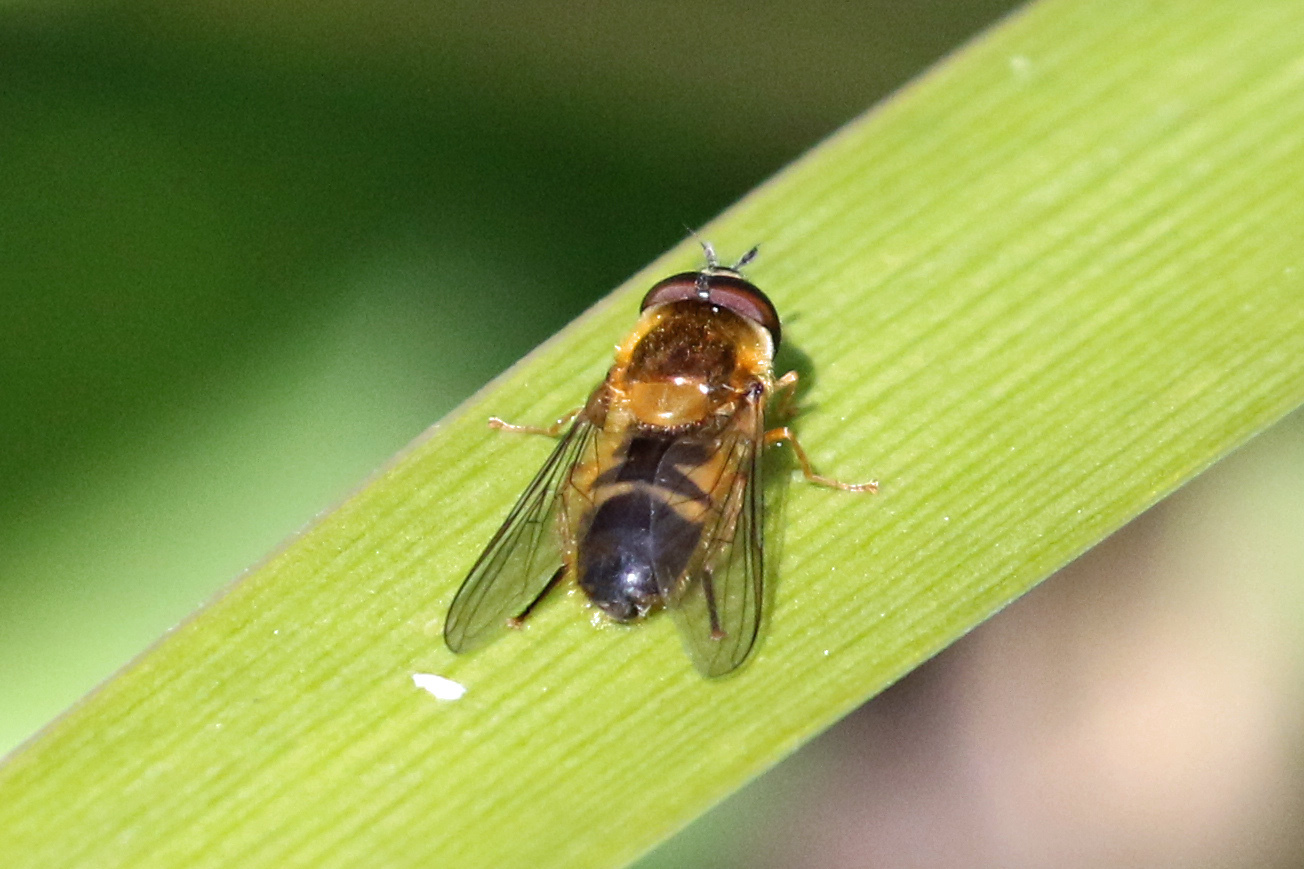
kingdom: Animalia
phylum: Arthropoda
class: Insecta
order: Diptera
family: Syrphidae
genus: Epistrophe
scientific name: Epistrophe eligans
